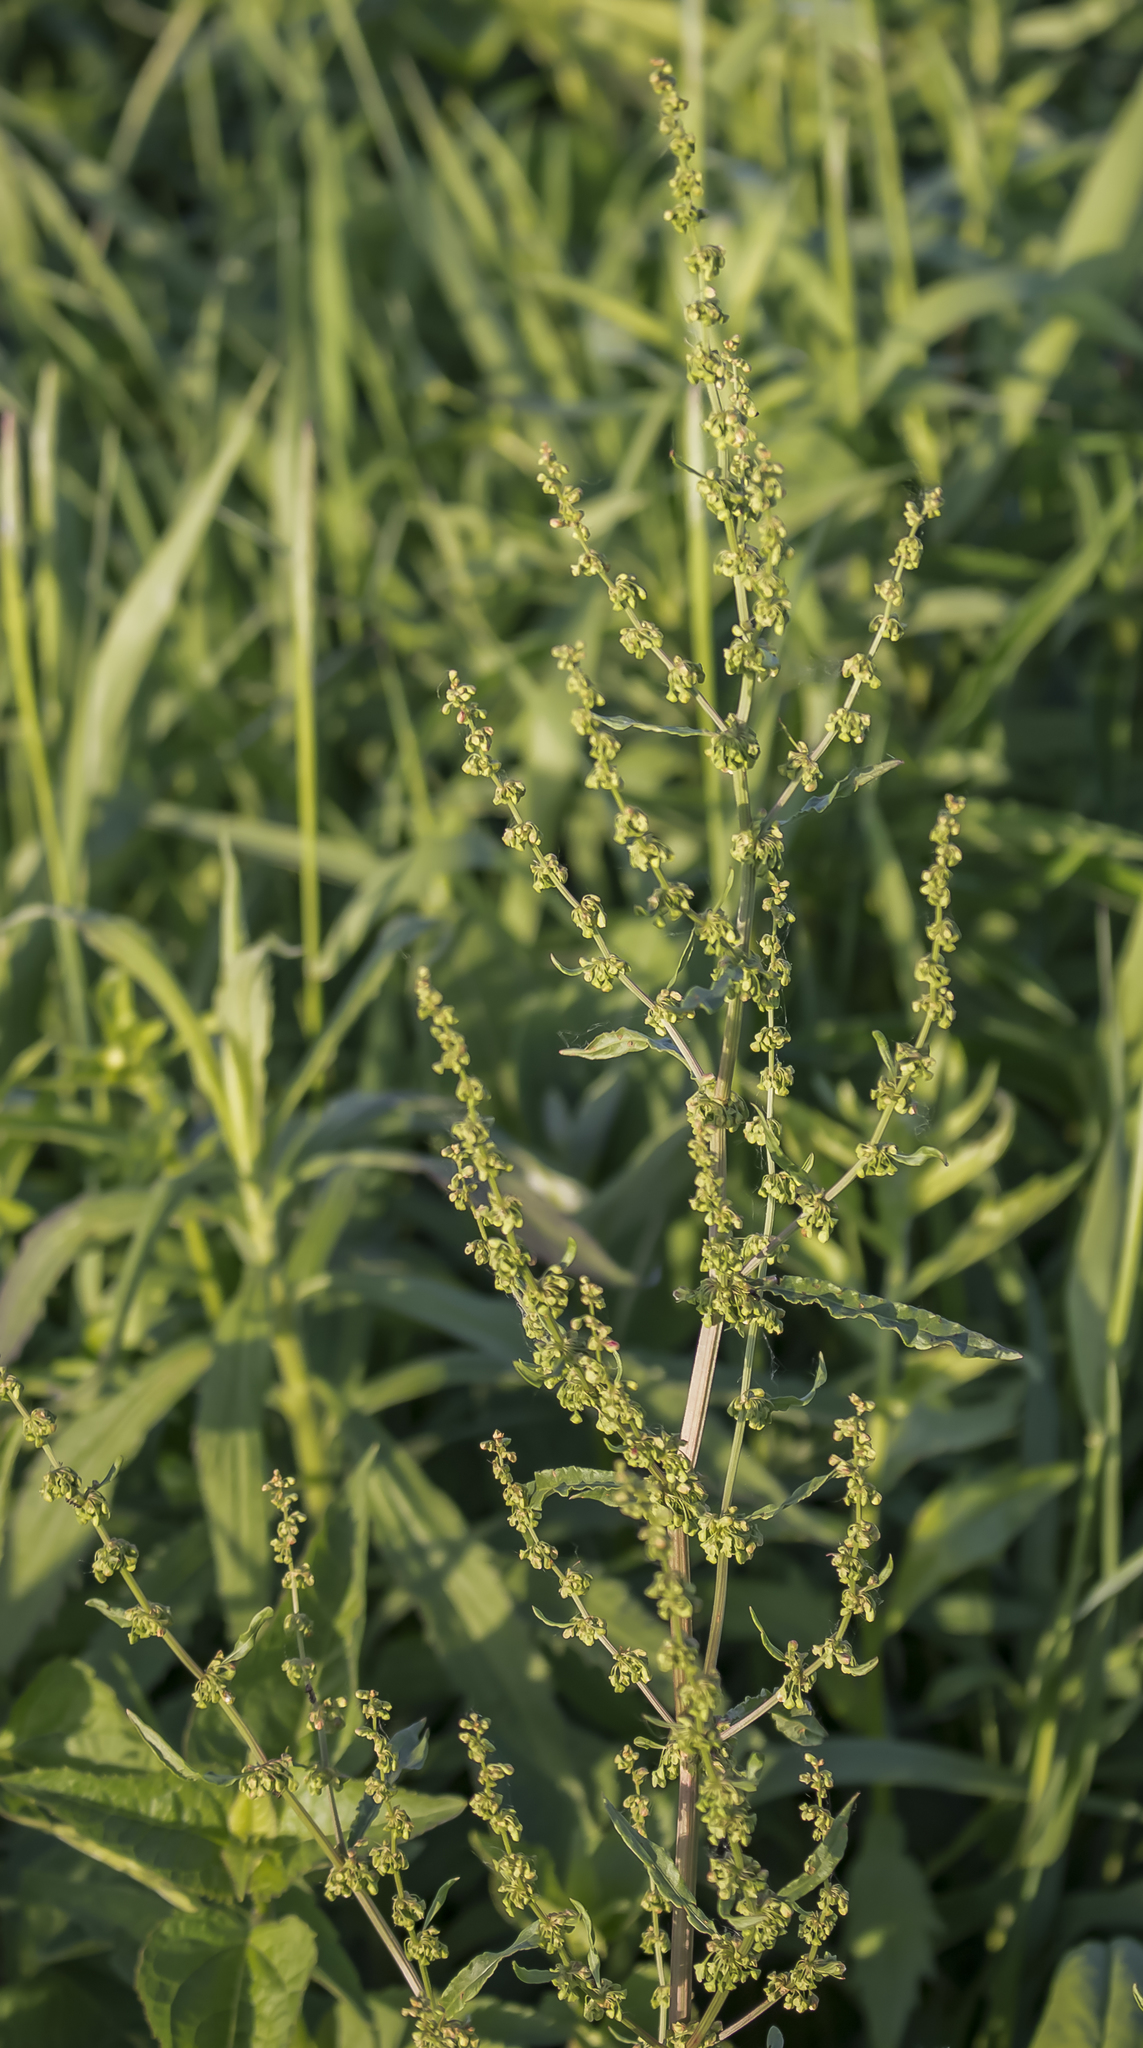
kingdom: Plantae
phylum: Tracheophyta
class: Magnoliopsida
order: Caryophyllales
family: Polygonaceae
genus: Rumex
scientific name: Rumex crispus
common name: Curled dock
